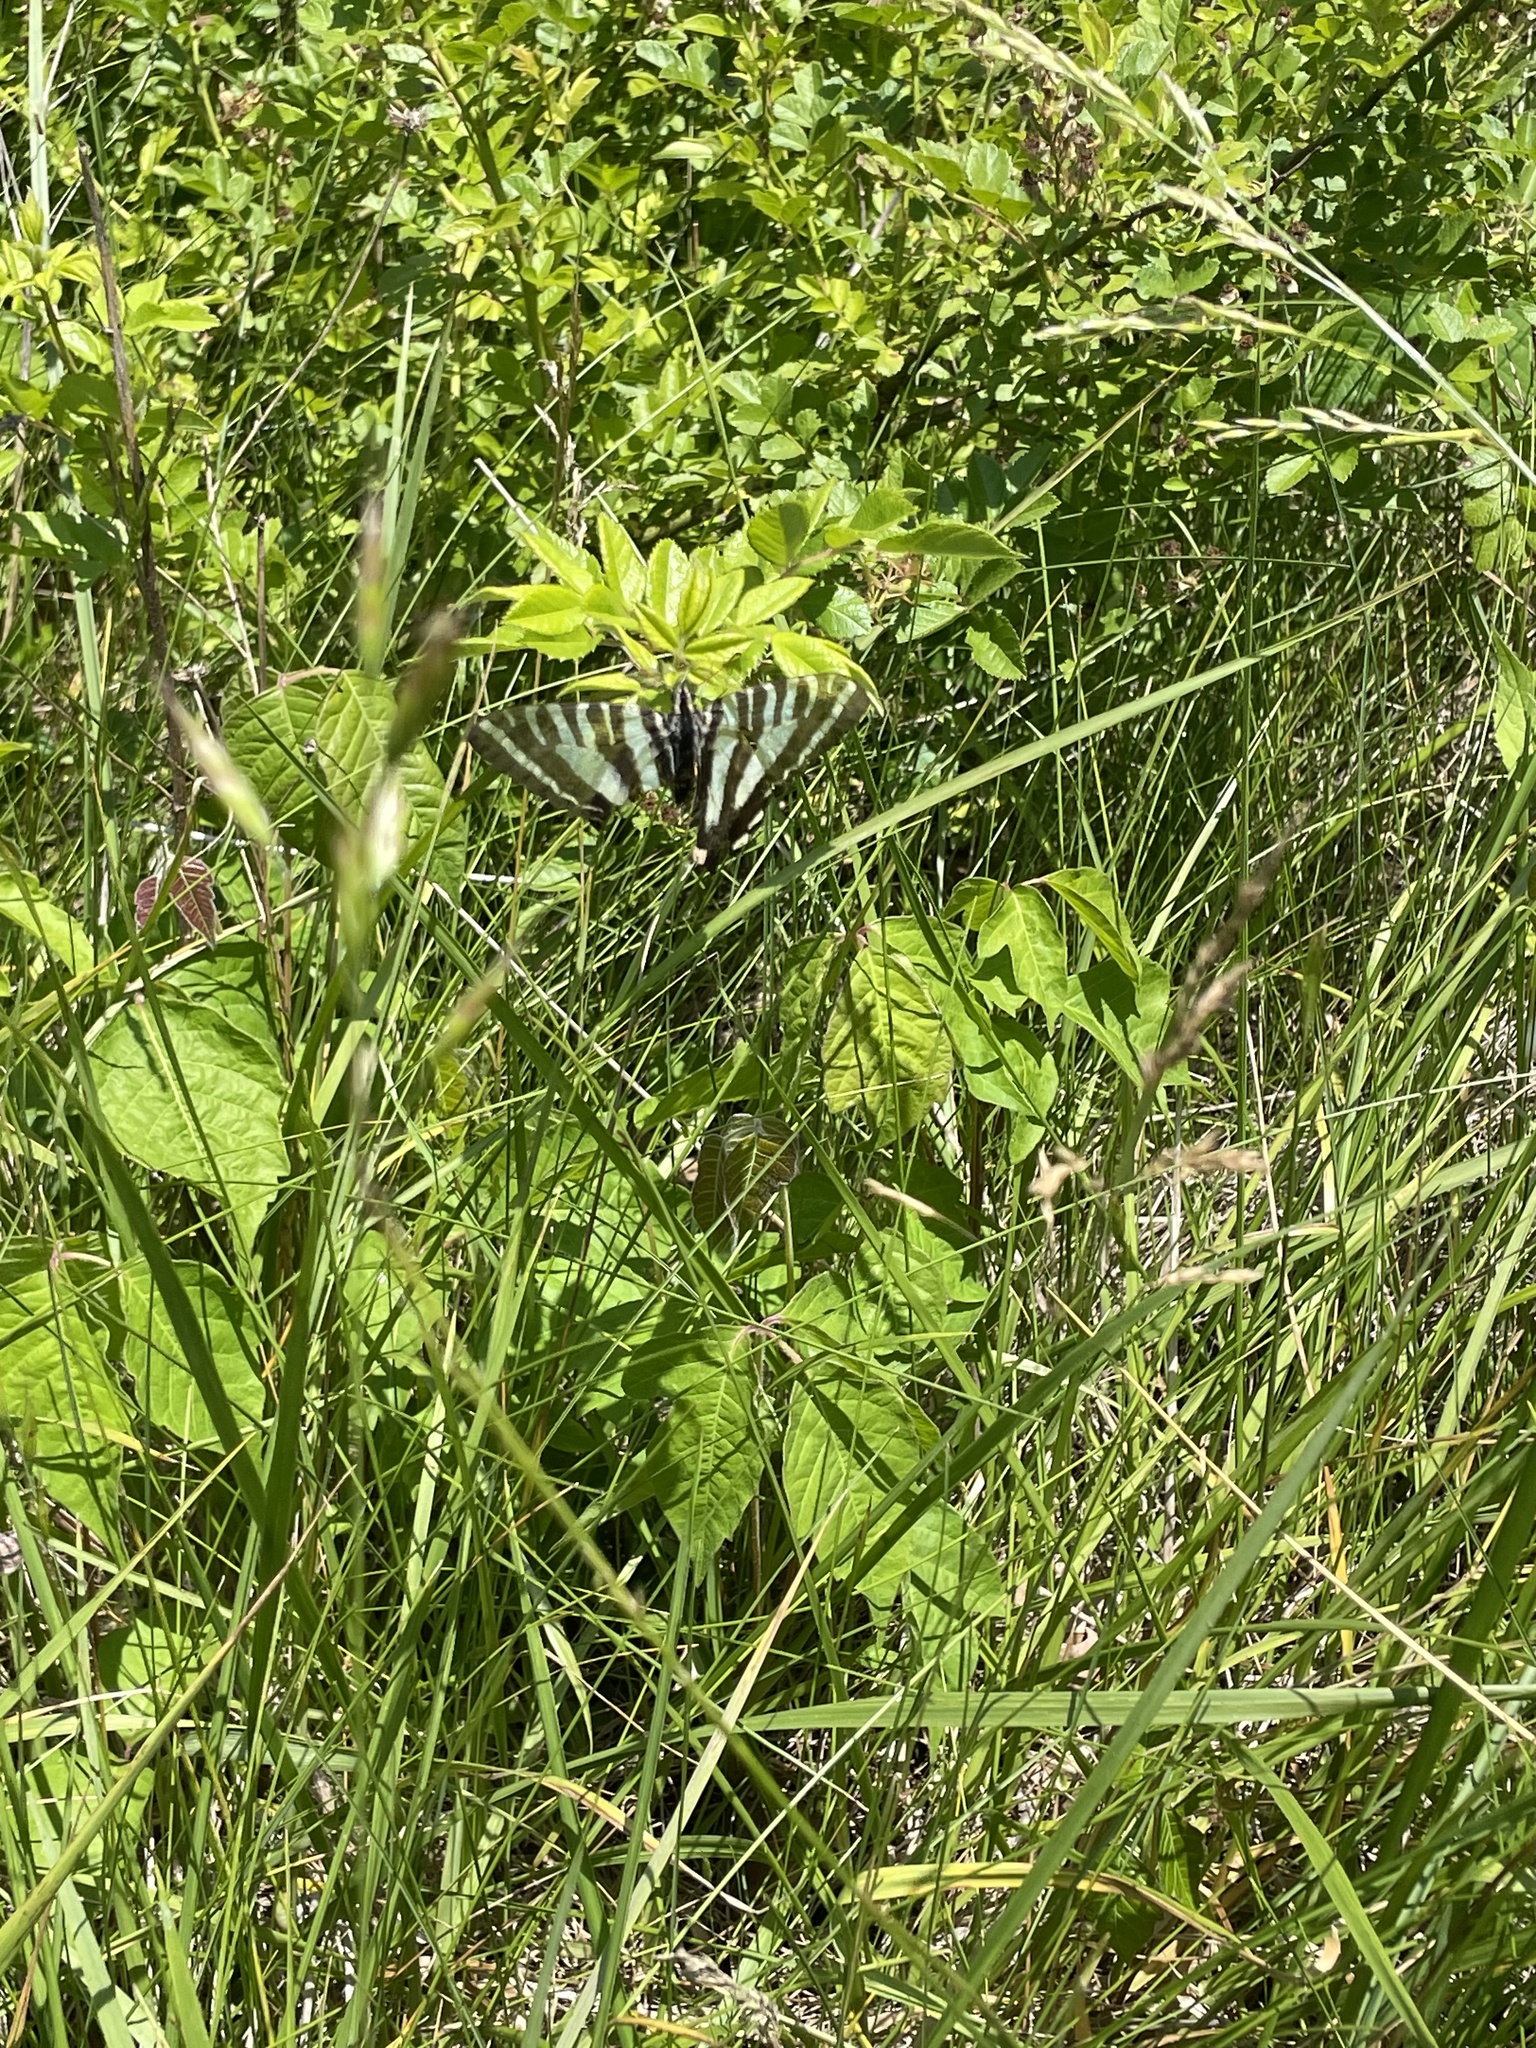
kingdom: Animalia
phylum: Arthropoda
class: Insecta
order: Lepidoptera
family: Papilionidae
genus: Protographium
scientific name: Protographium marcellus
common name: Zebra swallowtail
